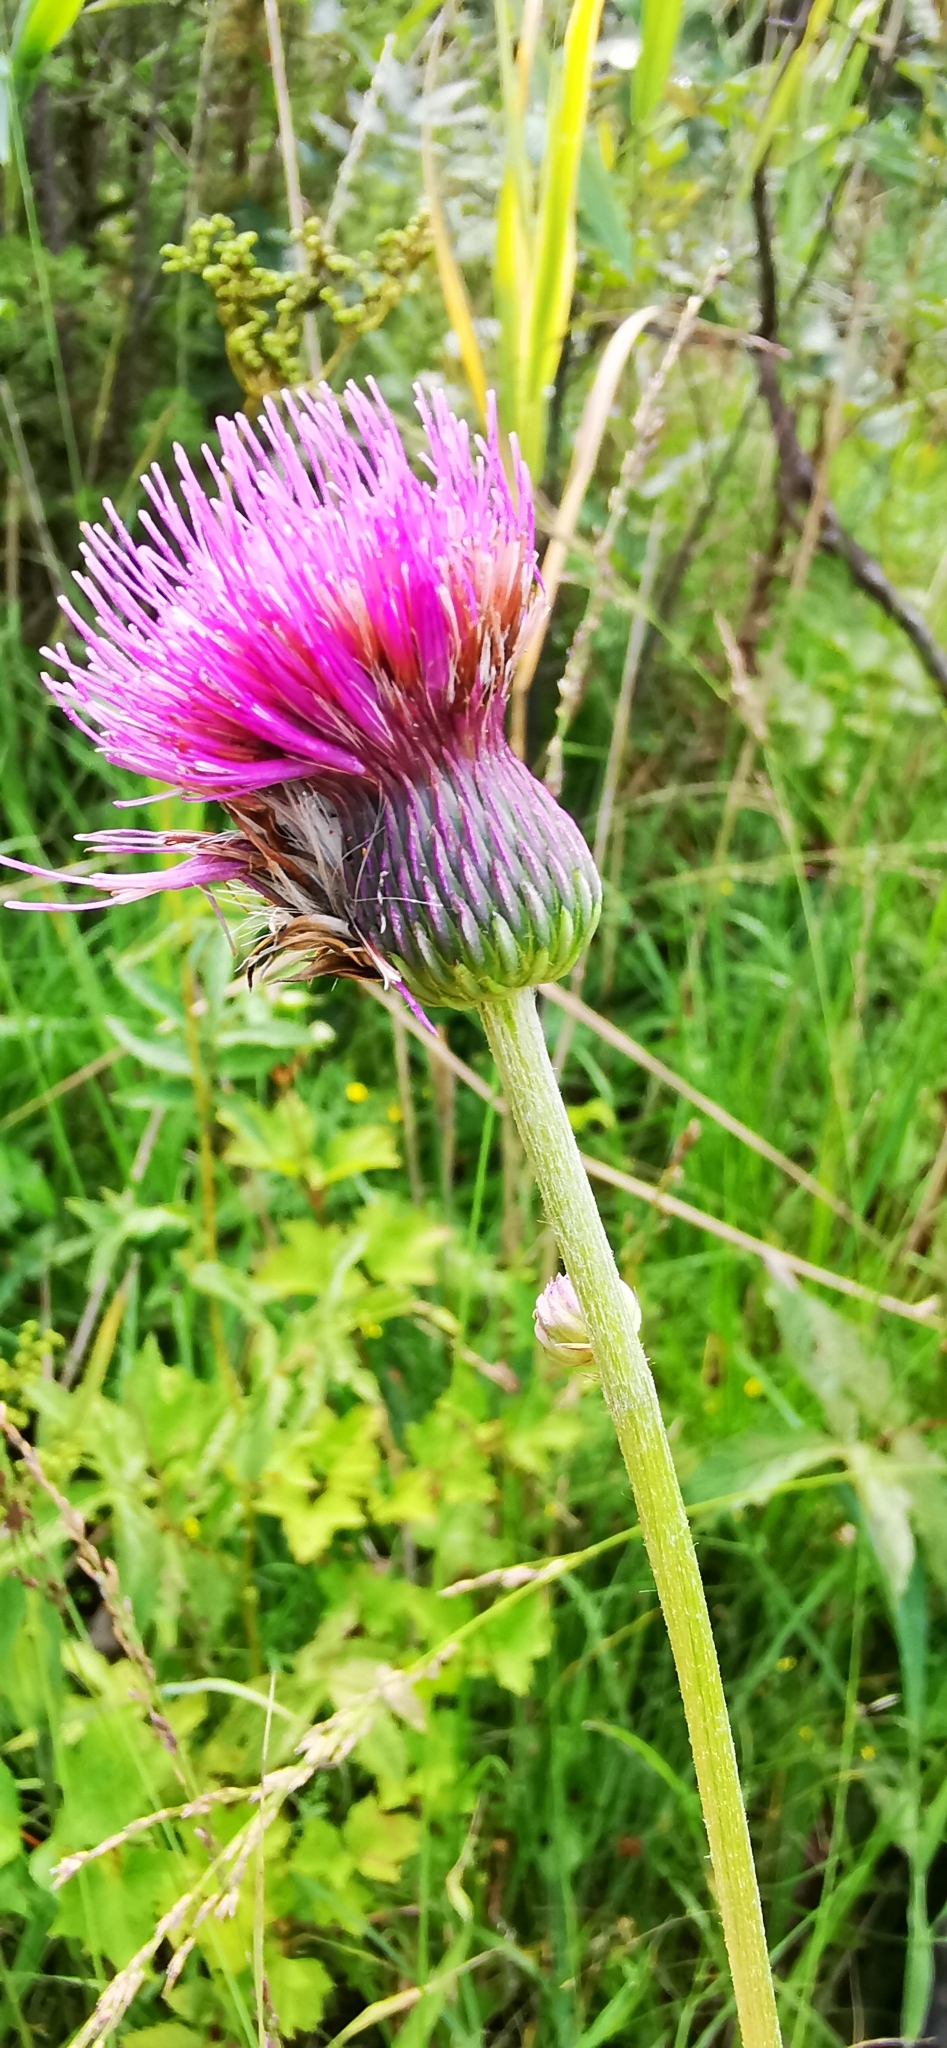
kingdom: Plantae
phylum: Tracheophyta
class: Magnoliopsida
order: Asterales
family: Asteraceae
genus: Cirsium
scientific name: Cirsium rivulare
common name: Brook thistle
